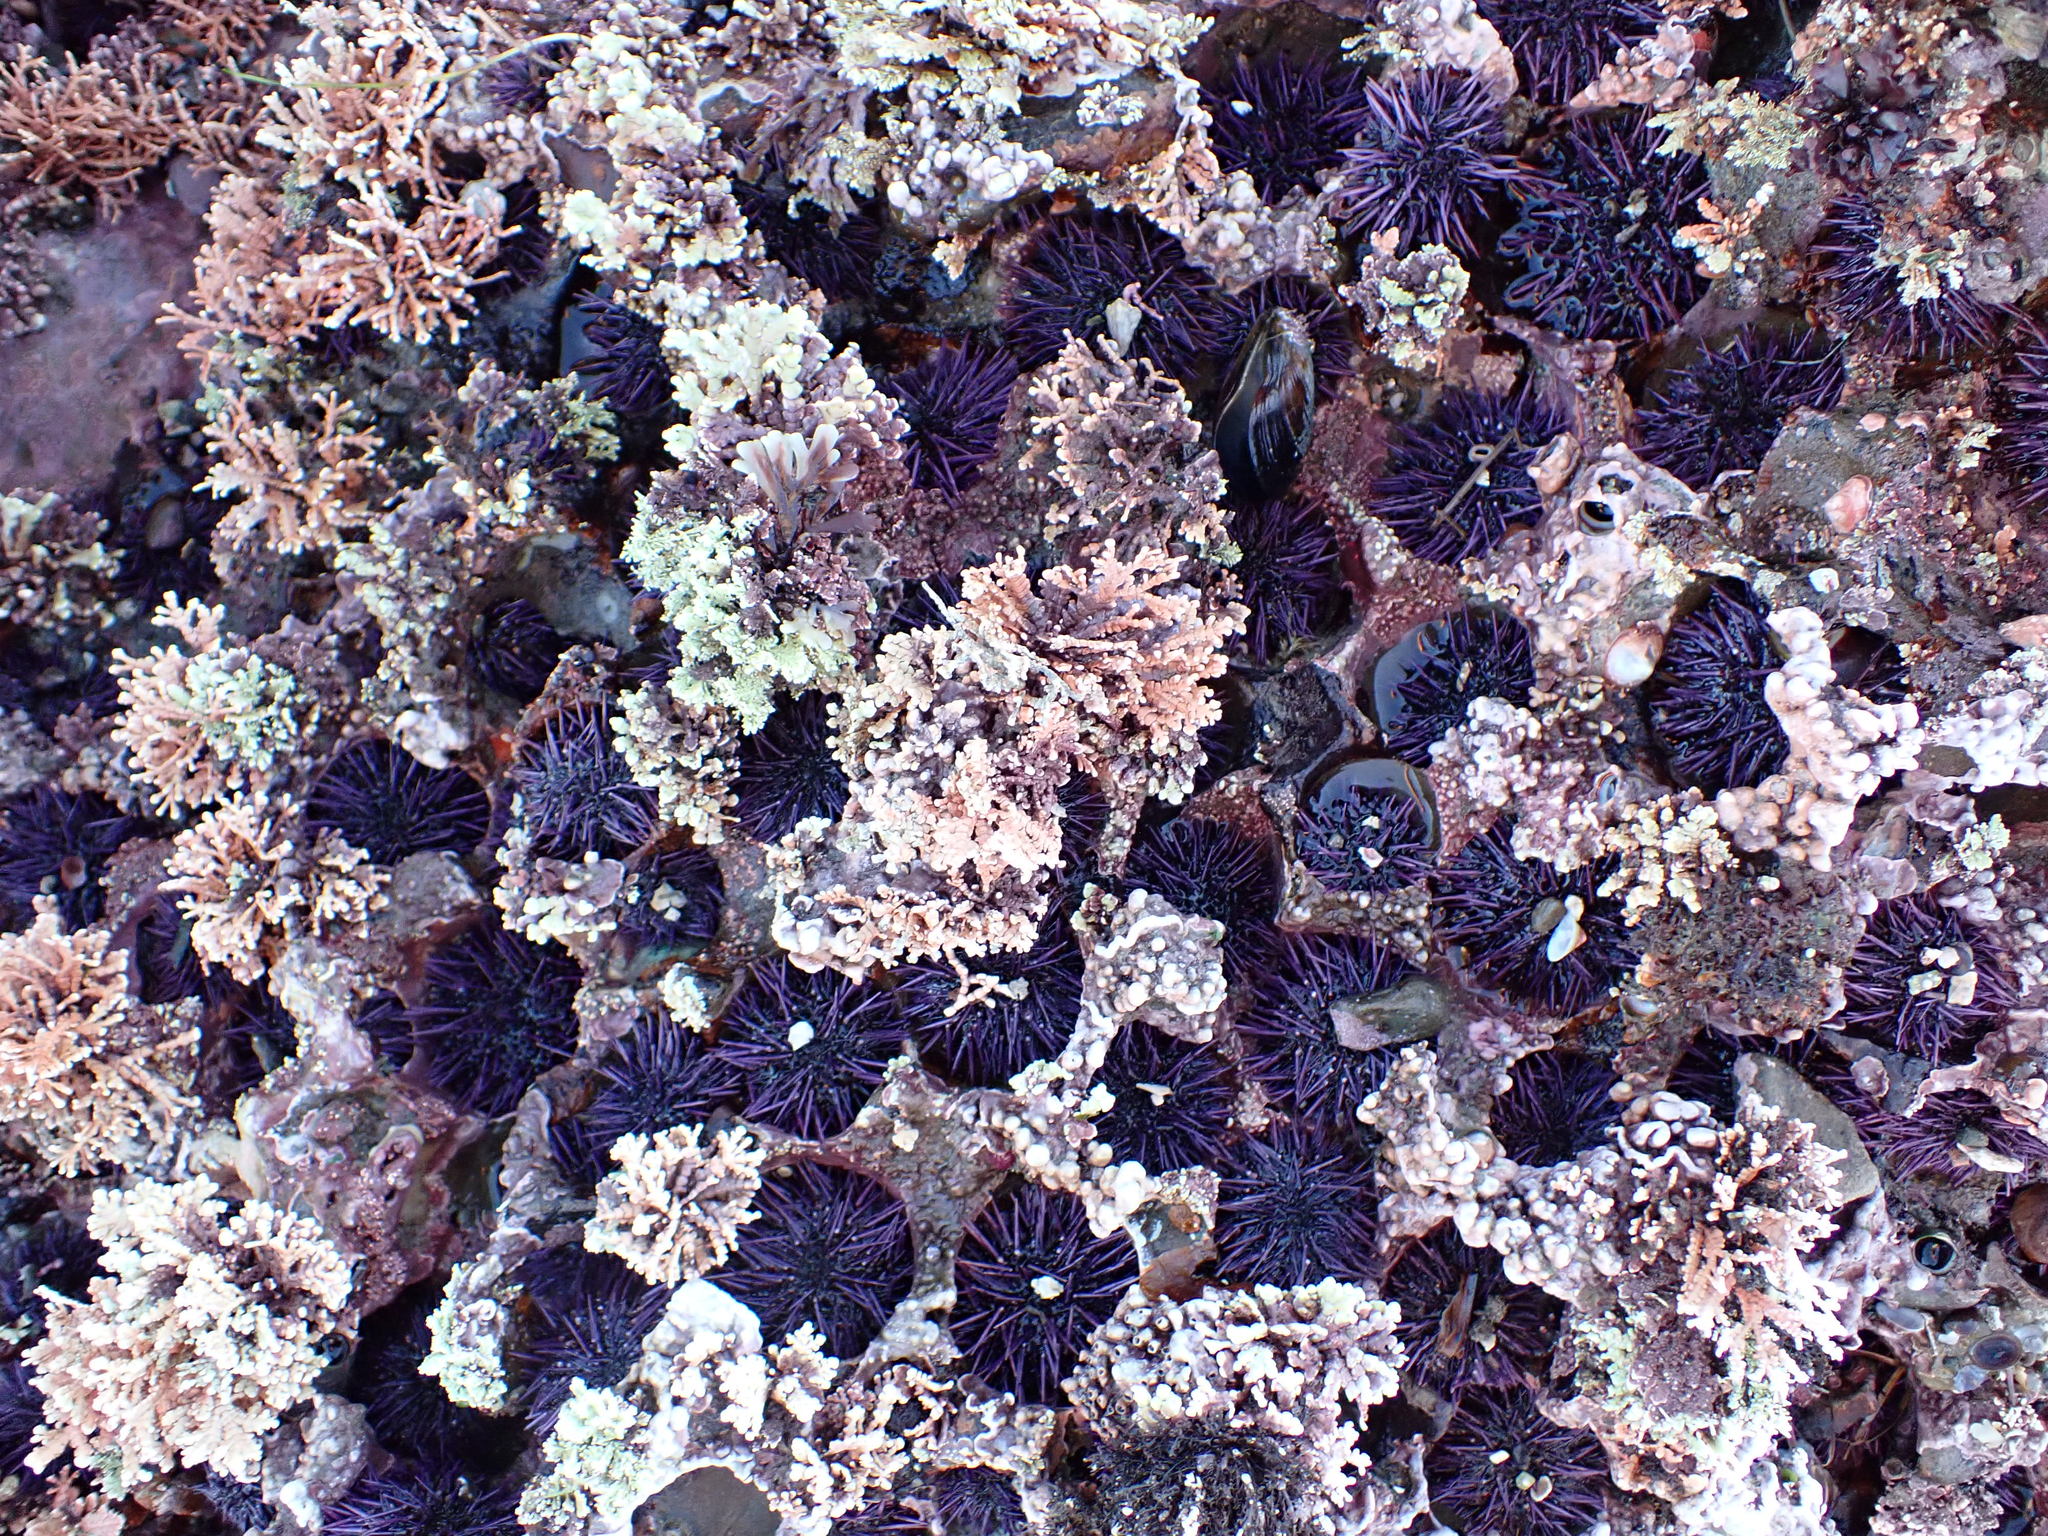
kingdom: Animalia
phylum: Echinodermata
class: Echinoidea
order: Camarodonta
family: Strongylocentrotidae
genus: Strongylocentrotus
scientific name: Strongylocentrotus purpuratus
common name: Purple sea urchin
